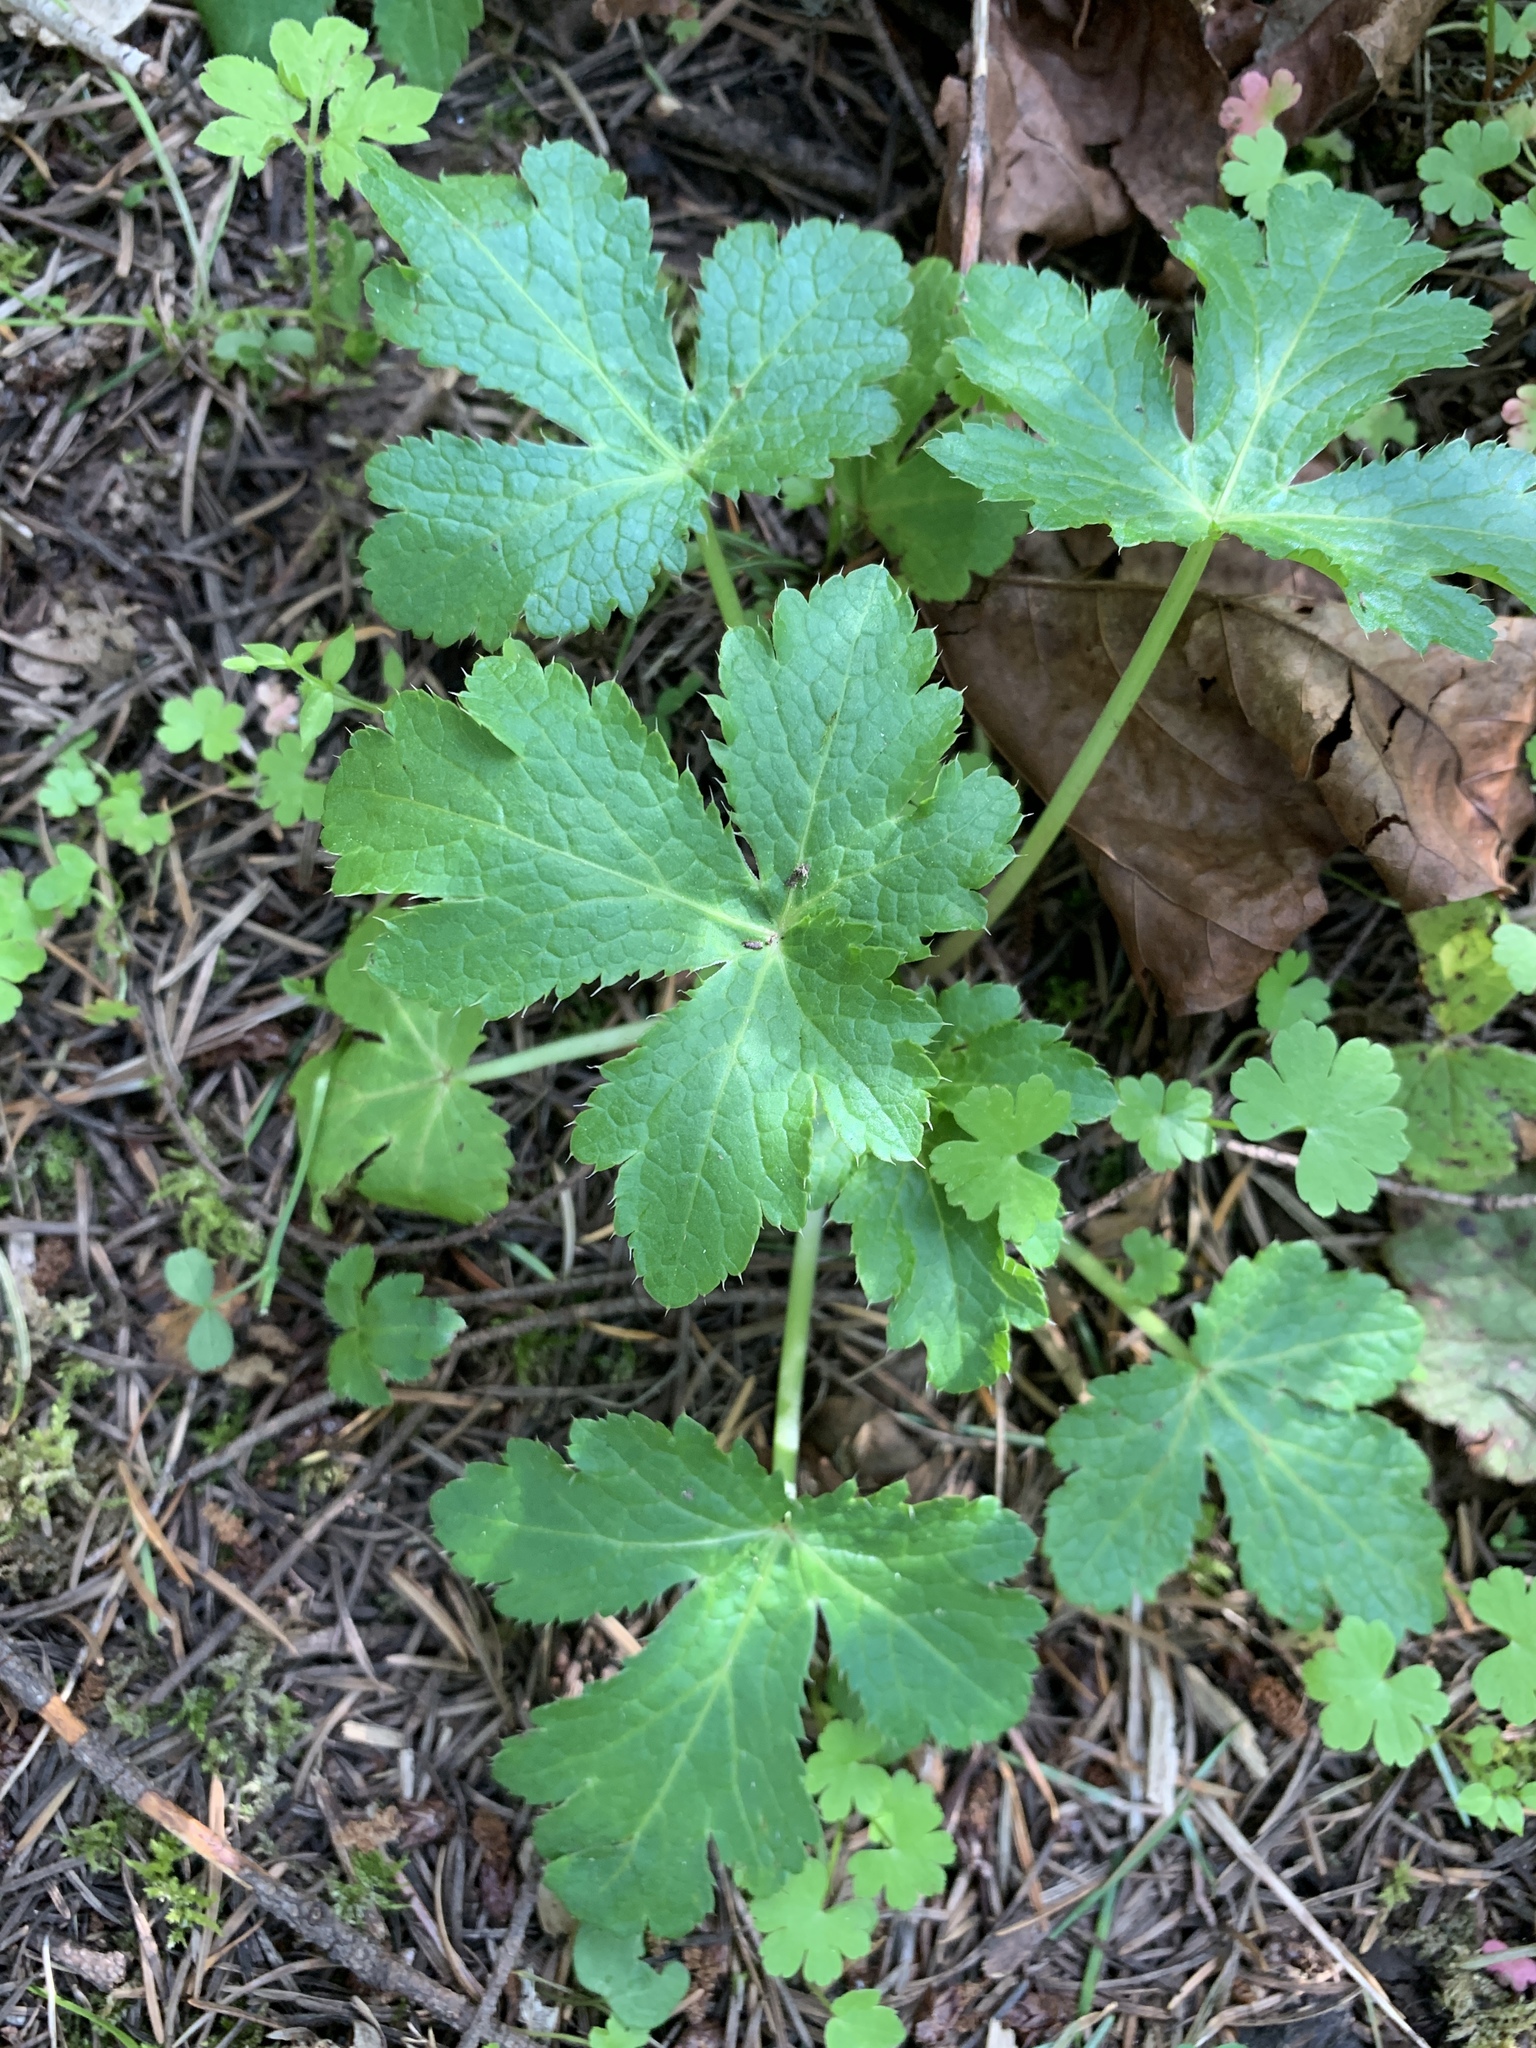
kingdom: Plantae
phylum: Tracheophyta
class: Magnoliopsida
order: Apiales
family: Apiaceae
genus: Sanicula
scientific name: Sanicula crassicaulis
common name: Western snakeroot
